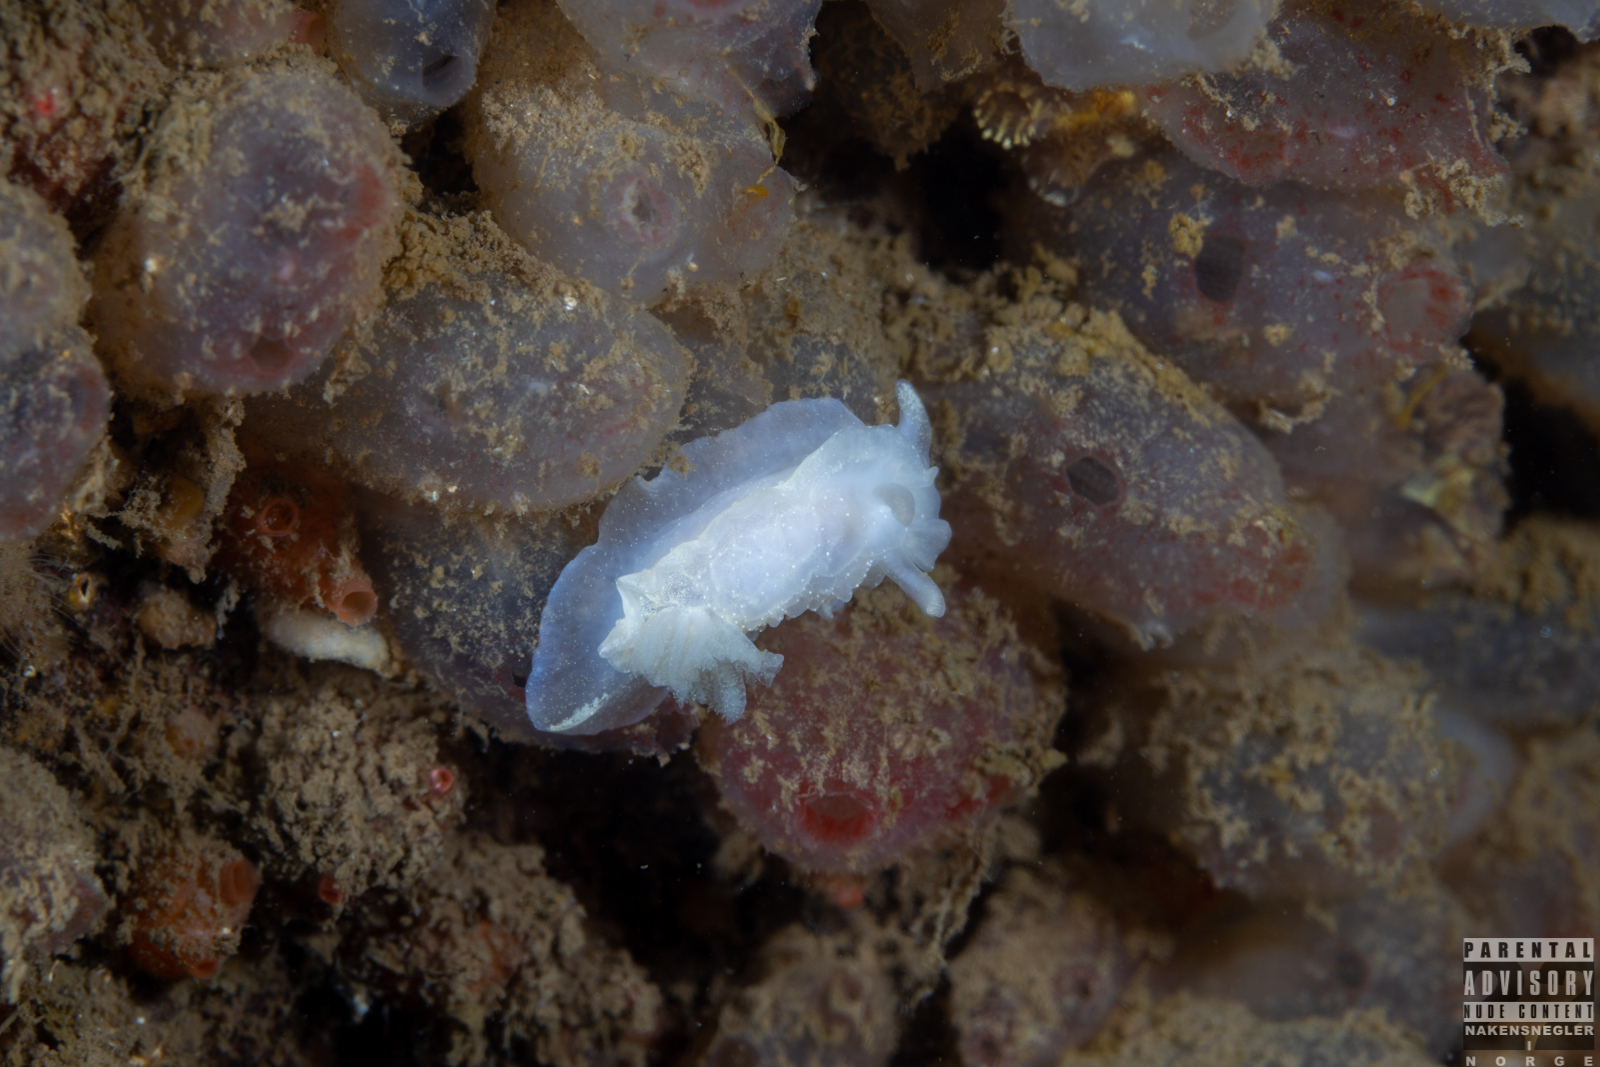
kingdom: Animalia
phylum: Mollusca
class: Gastropoda
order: Nudibranchia
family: Goniodorididae
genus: Okenia
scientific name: Okenia
